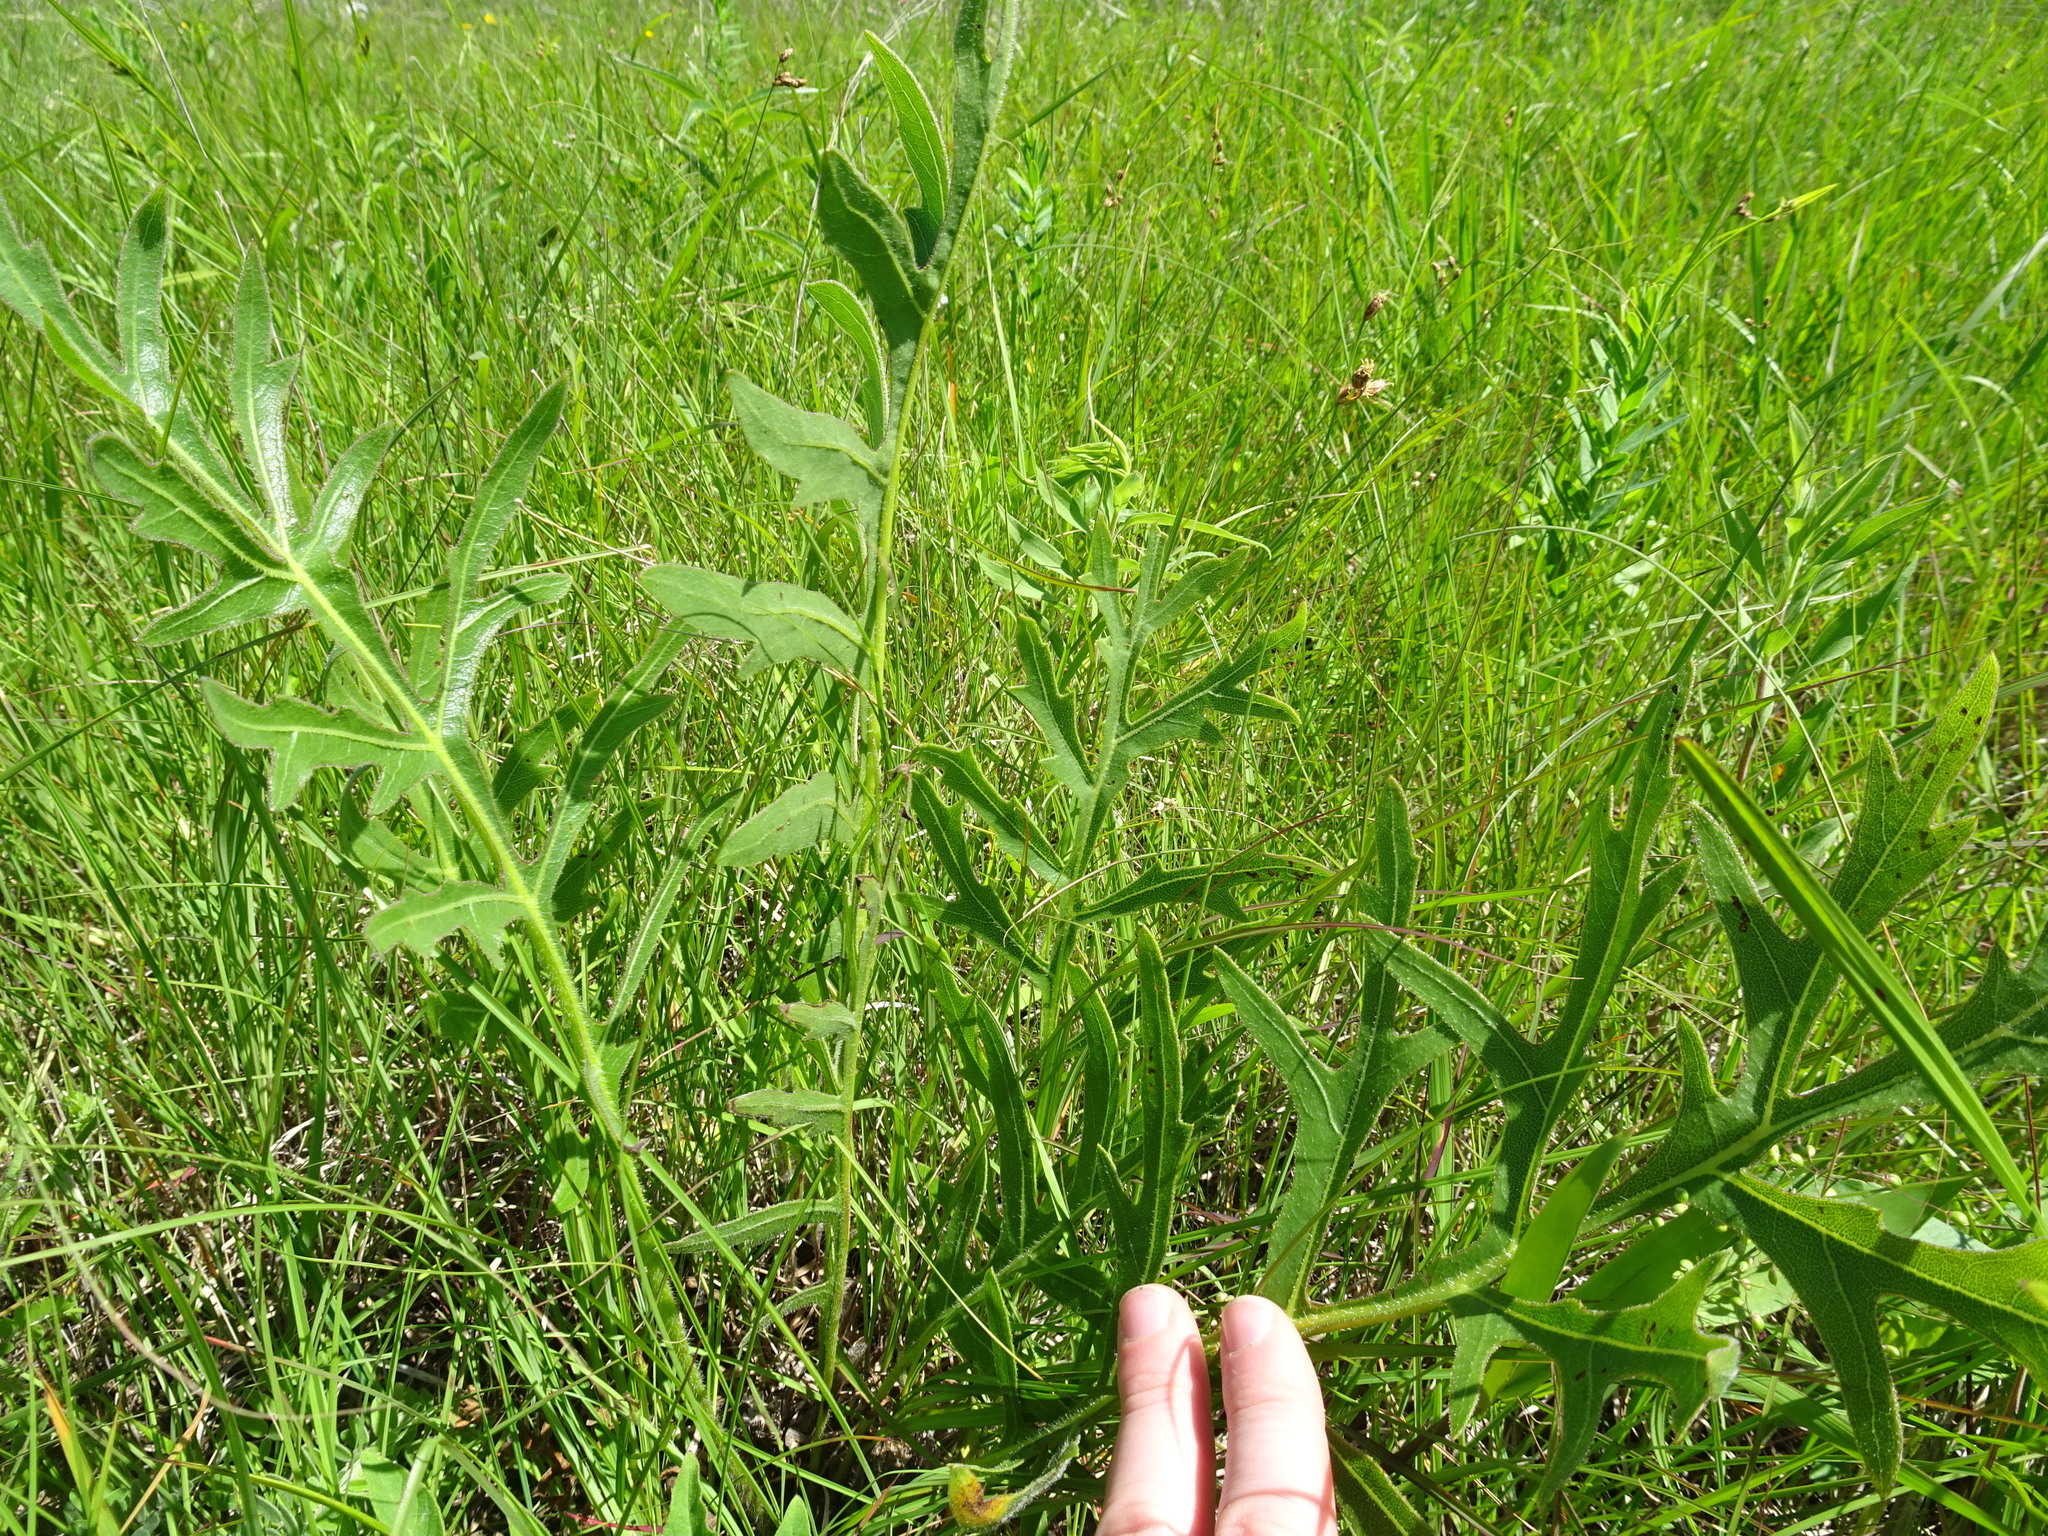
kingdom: Plantae
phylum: Tracheophyta
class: Magnoliopsida
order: Asterales
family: Asteraceae
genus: Silphium
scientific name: Silphium laciniatum
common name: Polarplant
